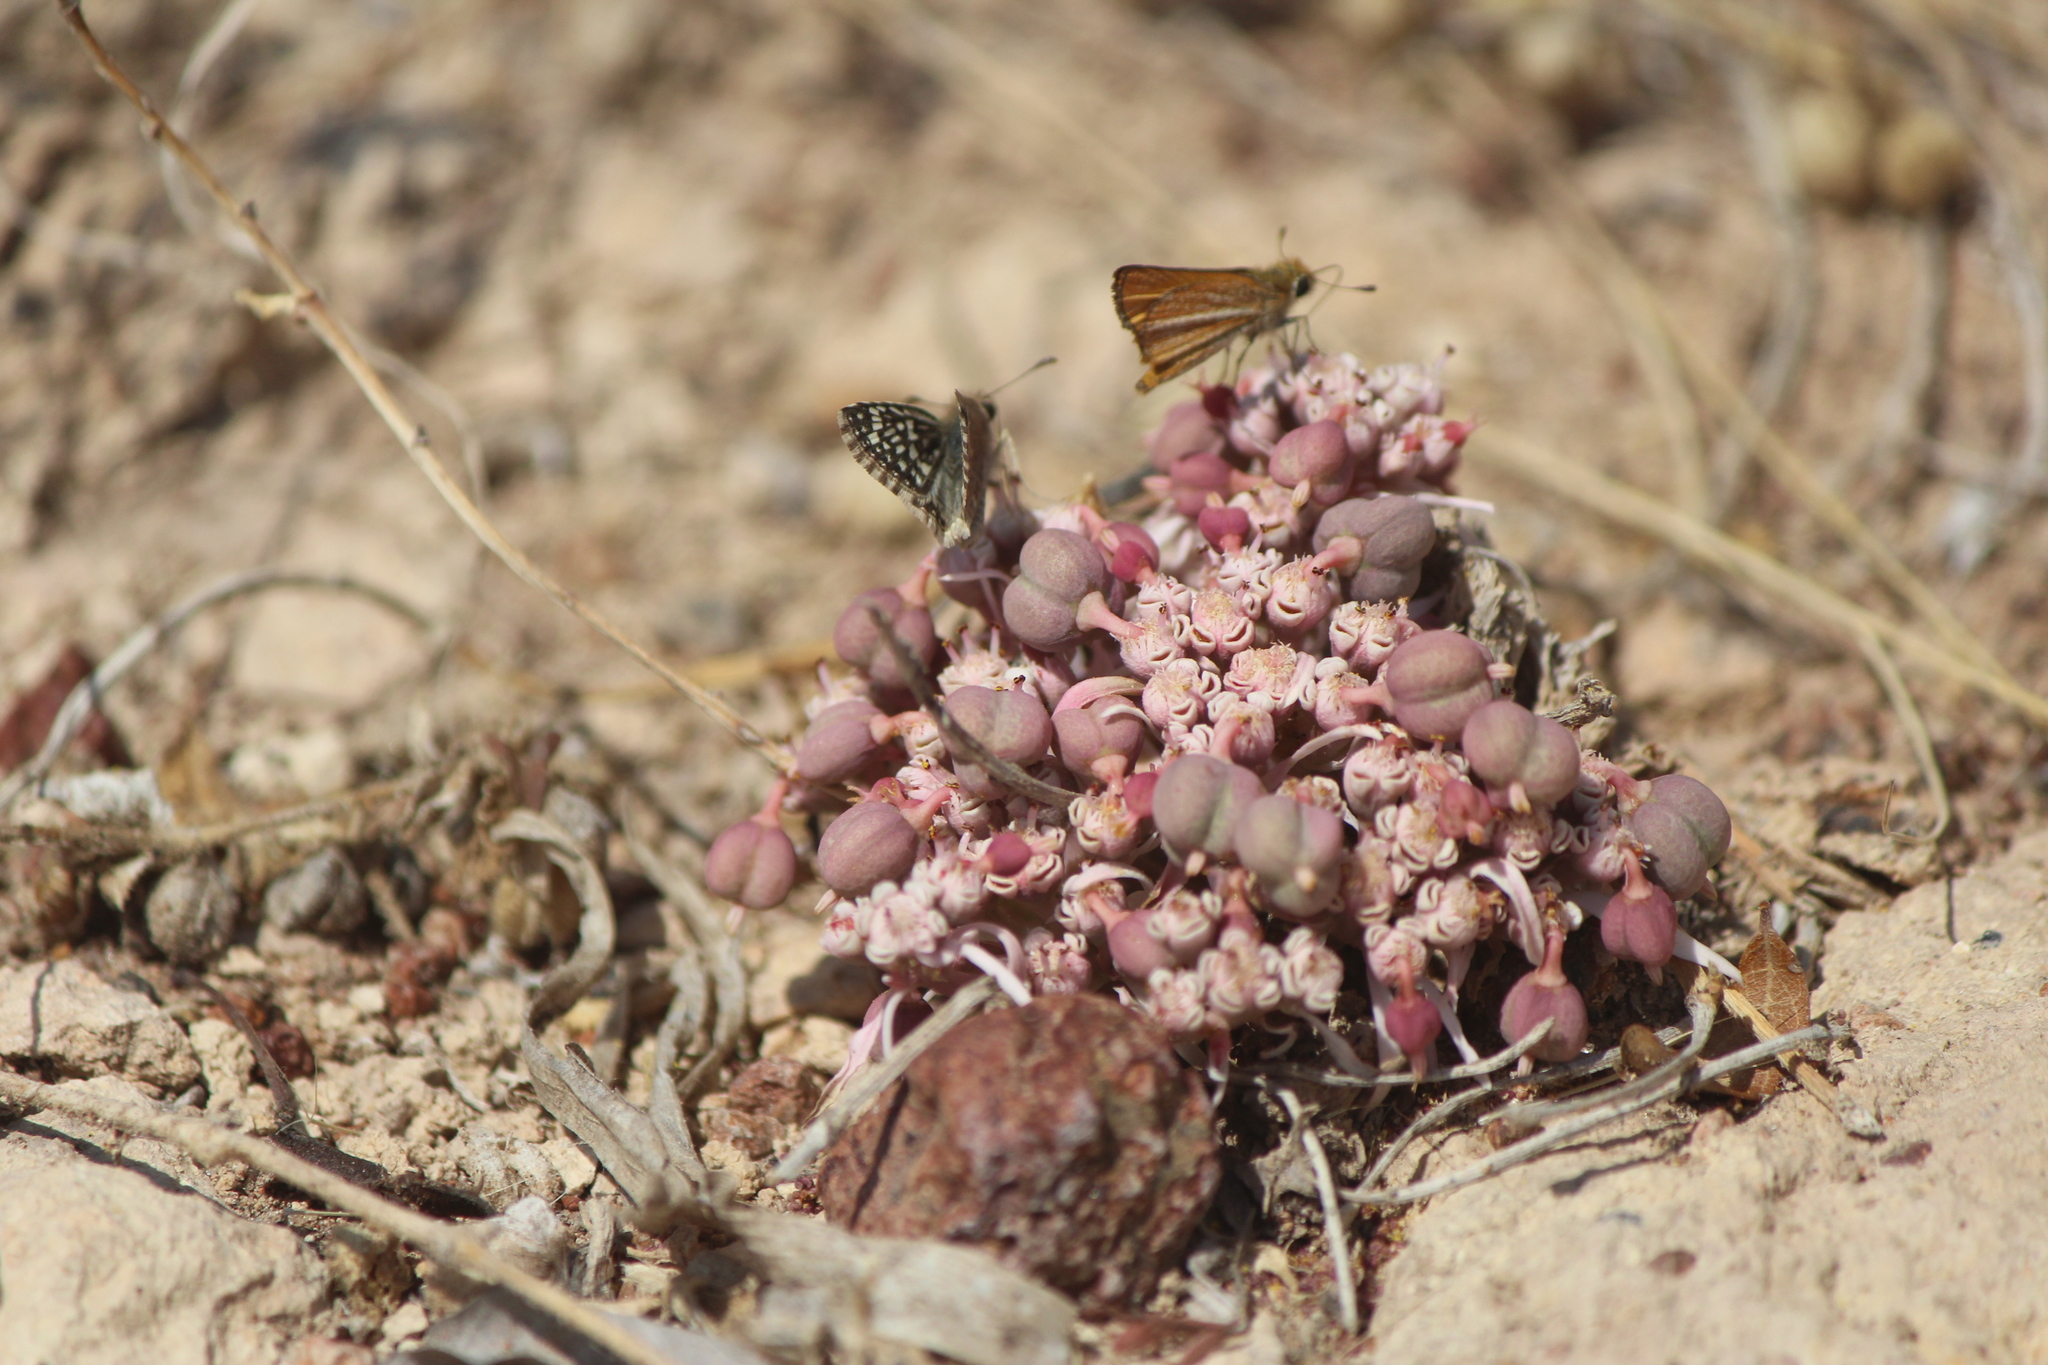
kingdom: Plantae
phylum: Tracheophyta
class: Magnoliopsida
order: Malpighiales
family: Euphorbiaceae
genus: Euphorbia
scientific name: Euphorbia radians
